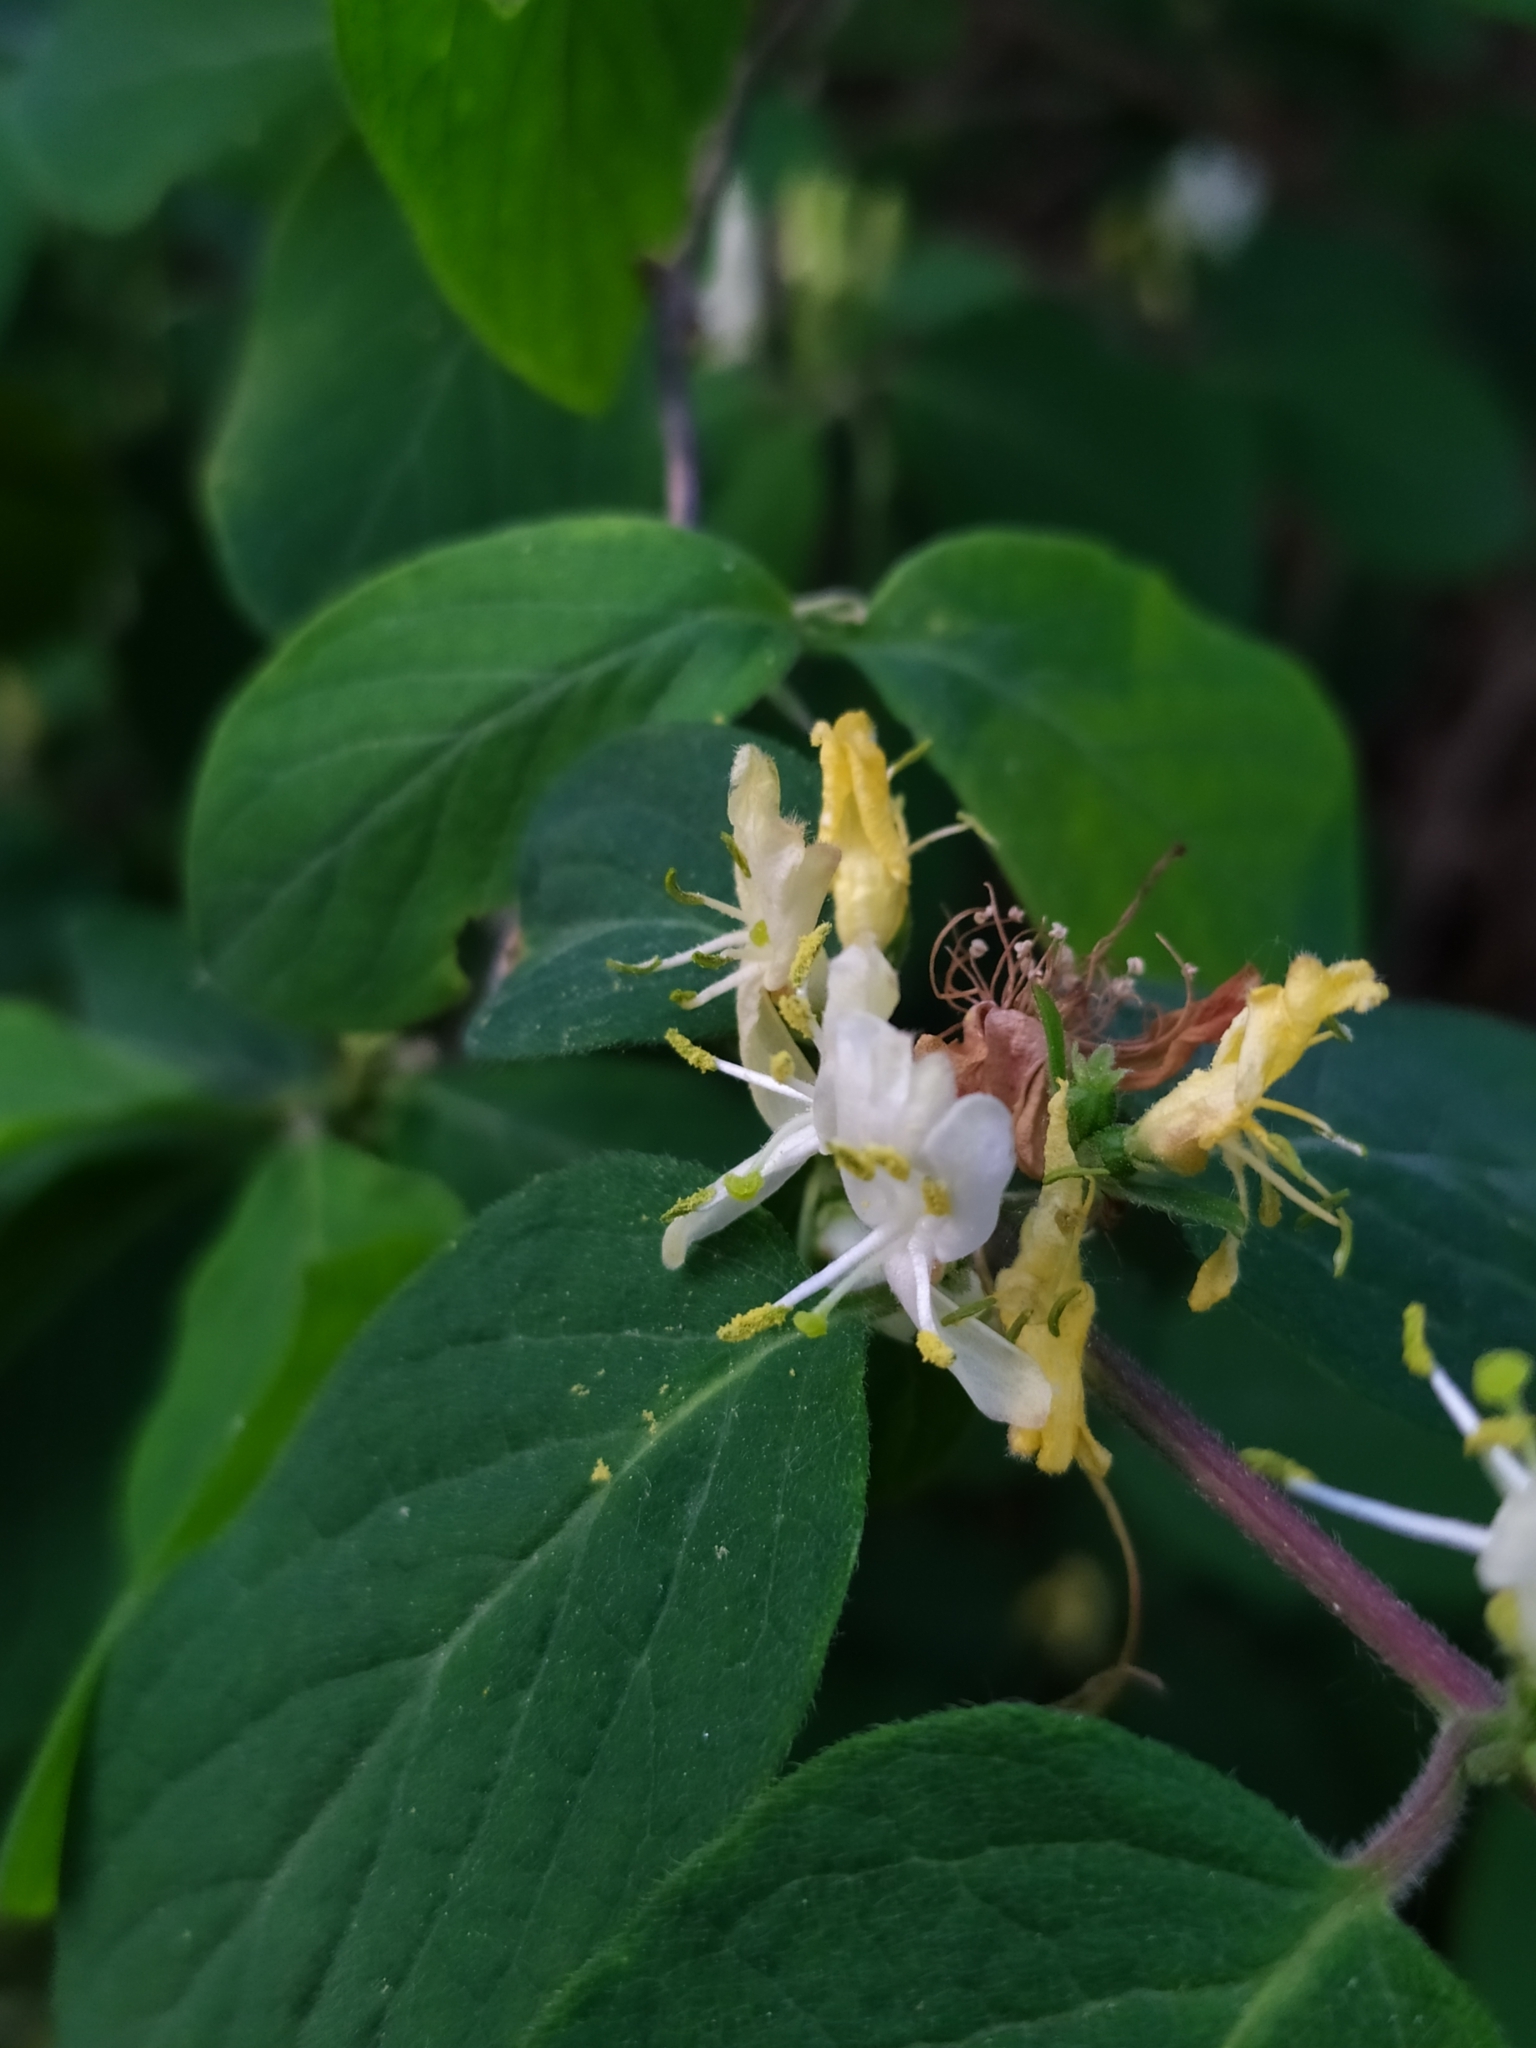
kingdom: Plantae
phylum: Tracheophyta
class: Magnoliopsida
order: Dipsacales
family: Caprifoliaceae
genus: Lonicera
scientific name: Lonicera xylosteum
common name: Fly honeysuckle
